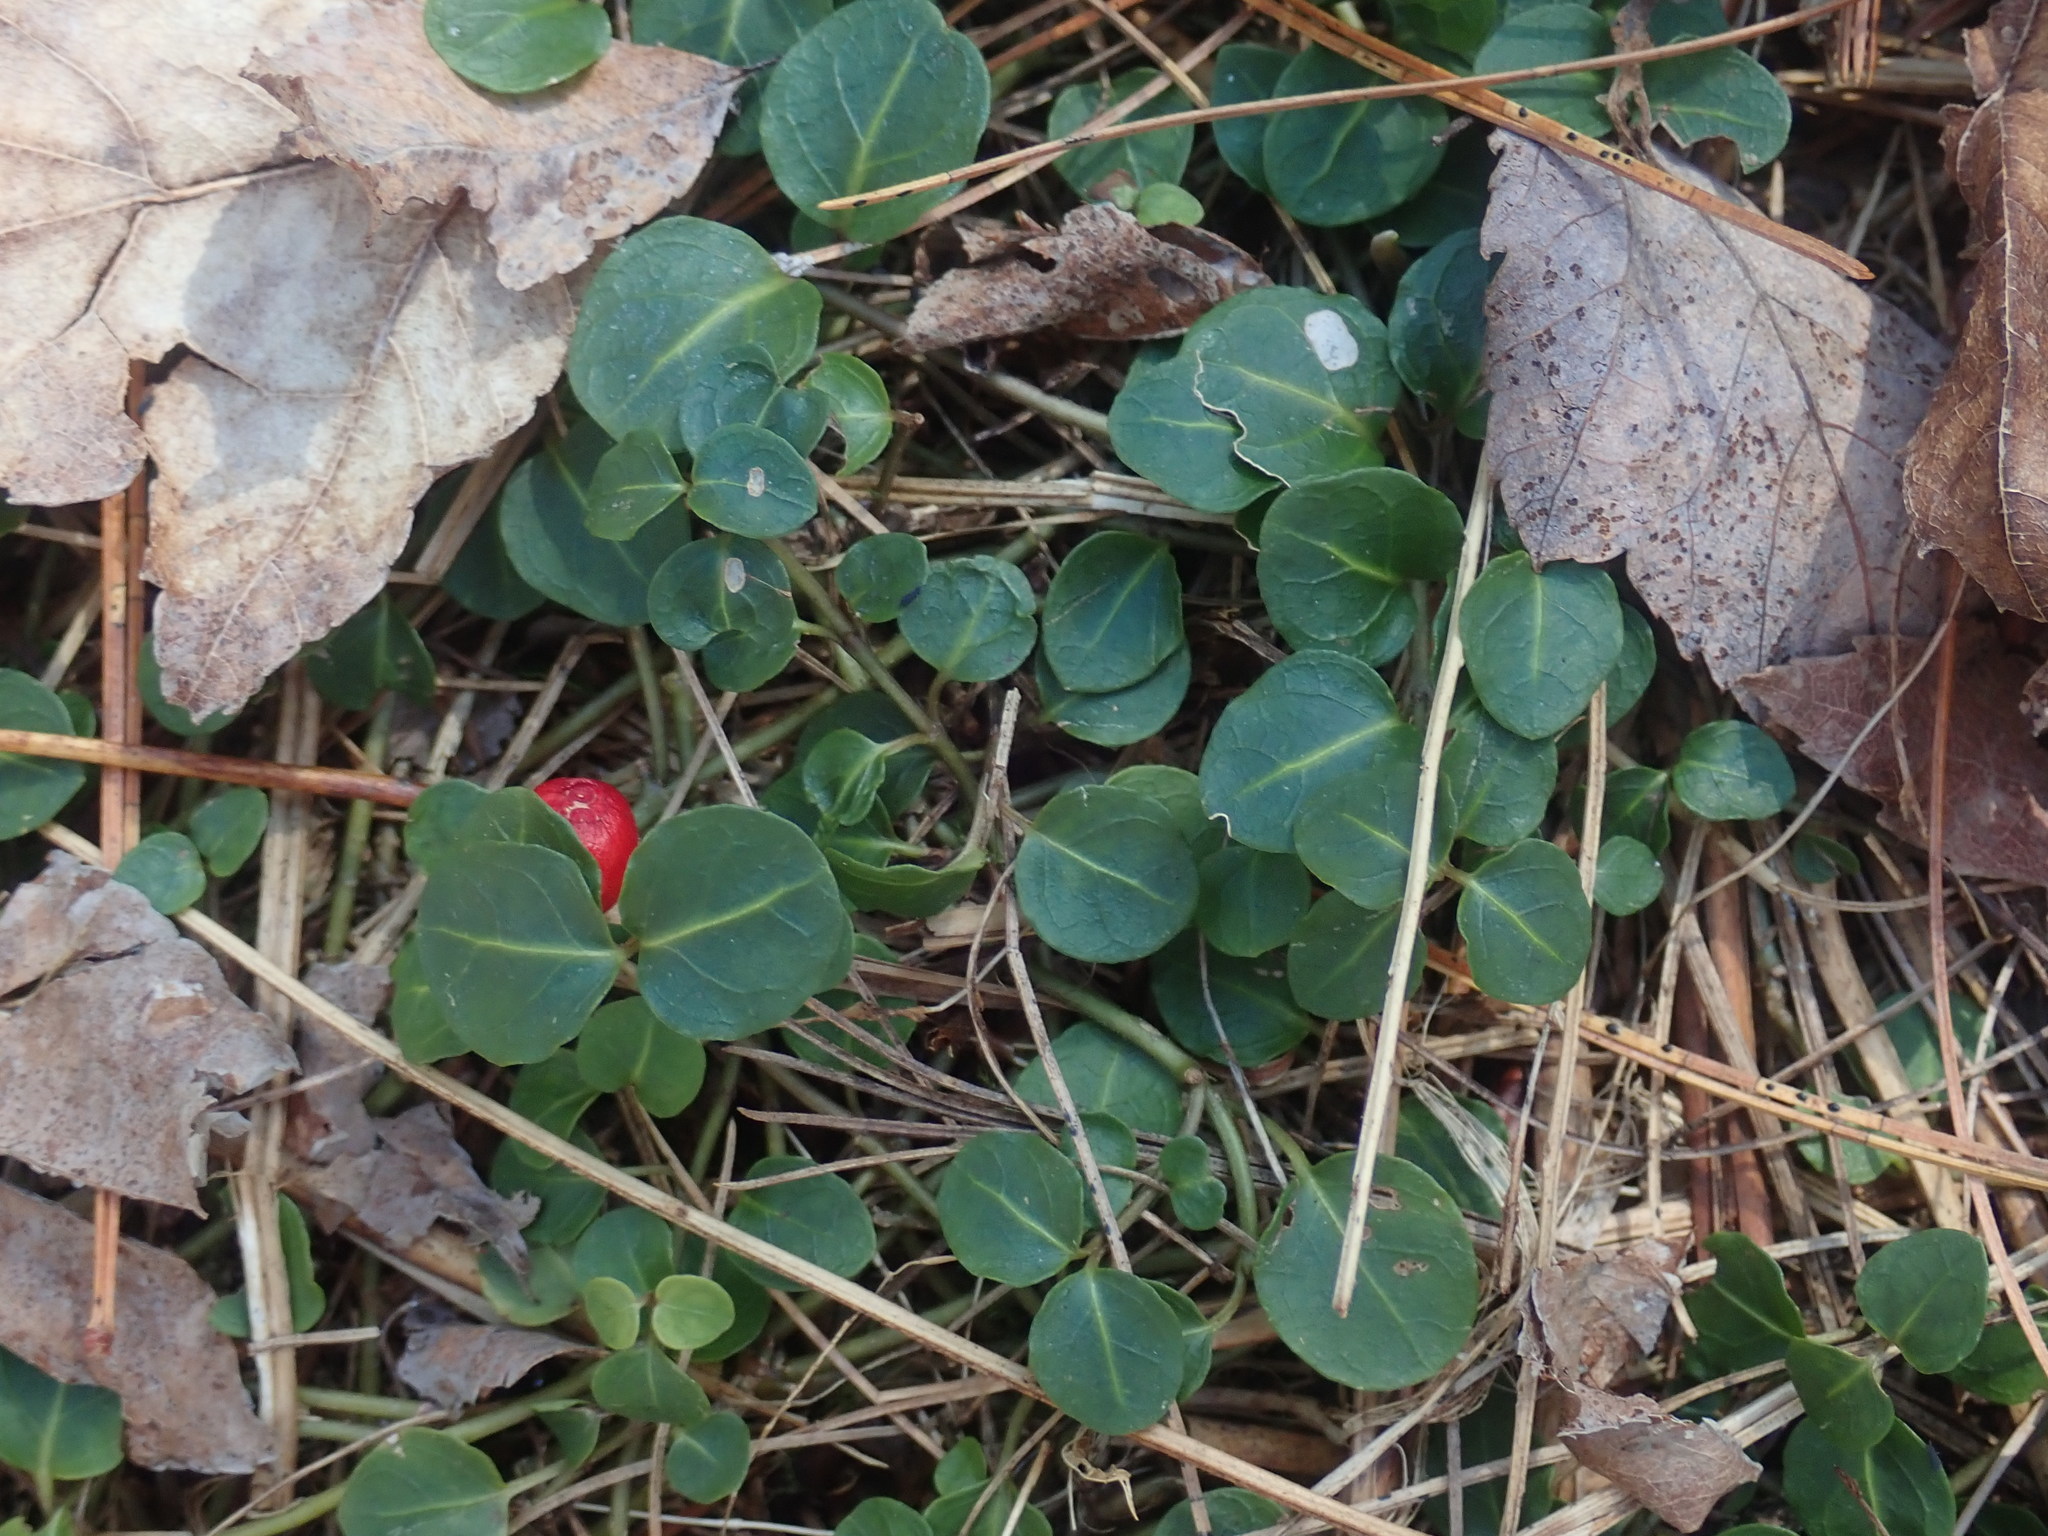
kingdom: Plantae
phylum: Tracheophyta
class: Magnoliopsida
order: Gentianales
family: Rubiaceae
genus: Mitchella
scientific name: Mitchella repens
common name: Partridge-berry
